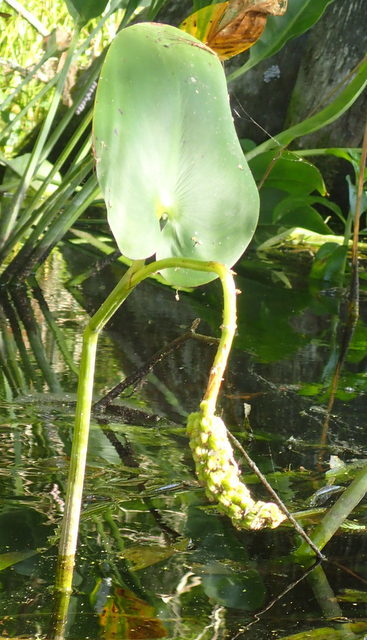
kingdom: Plantae
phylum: Tracheophyta
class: Liliopsida
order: Commelinales
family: Pontederiaceae
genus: Pontederia
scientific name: Pontederia cordata
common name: Pickerelweed
